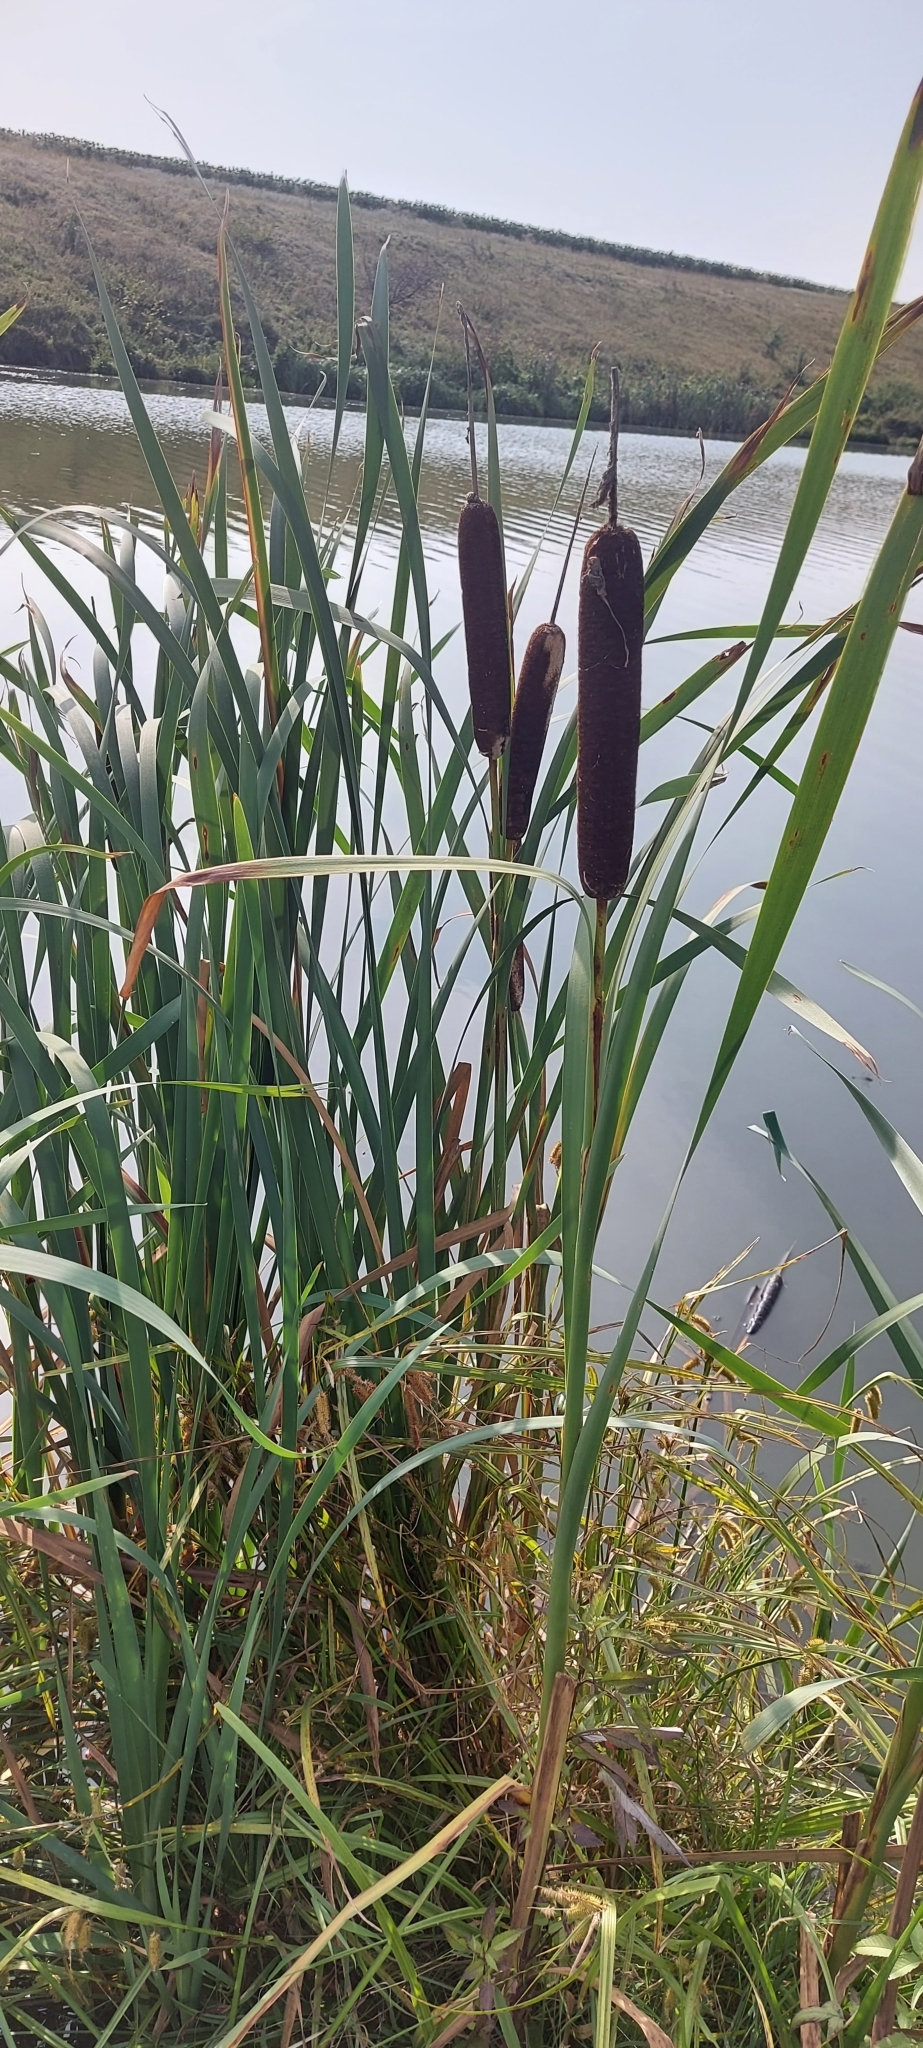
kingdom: Plantae
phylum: Tracheophyta
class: Liliopsida
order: Poales
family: Typhaceae
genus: Typha
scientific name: Typha latifolia
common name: Broadleaf cattail
